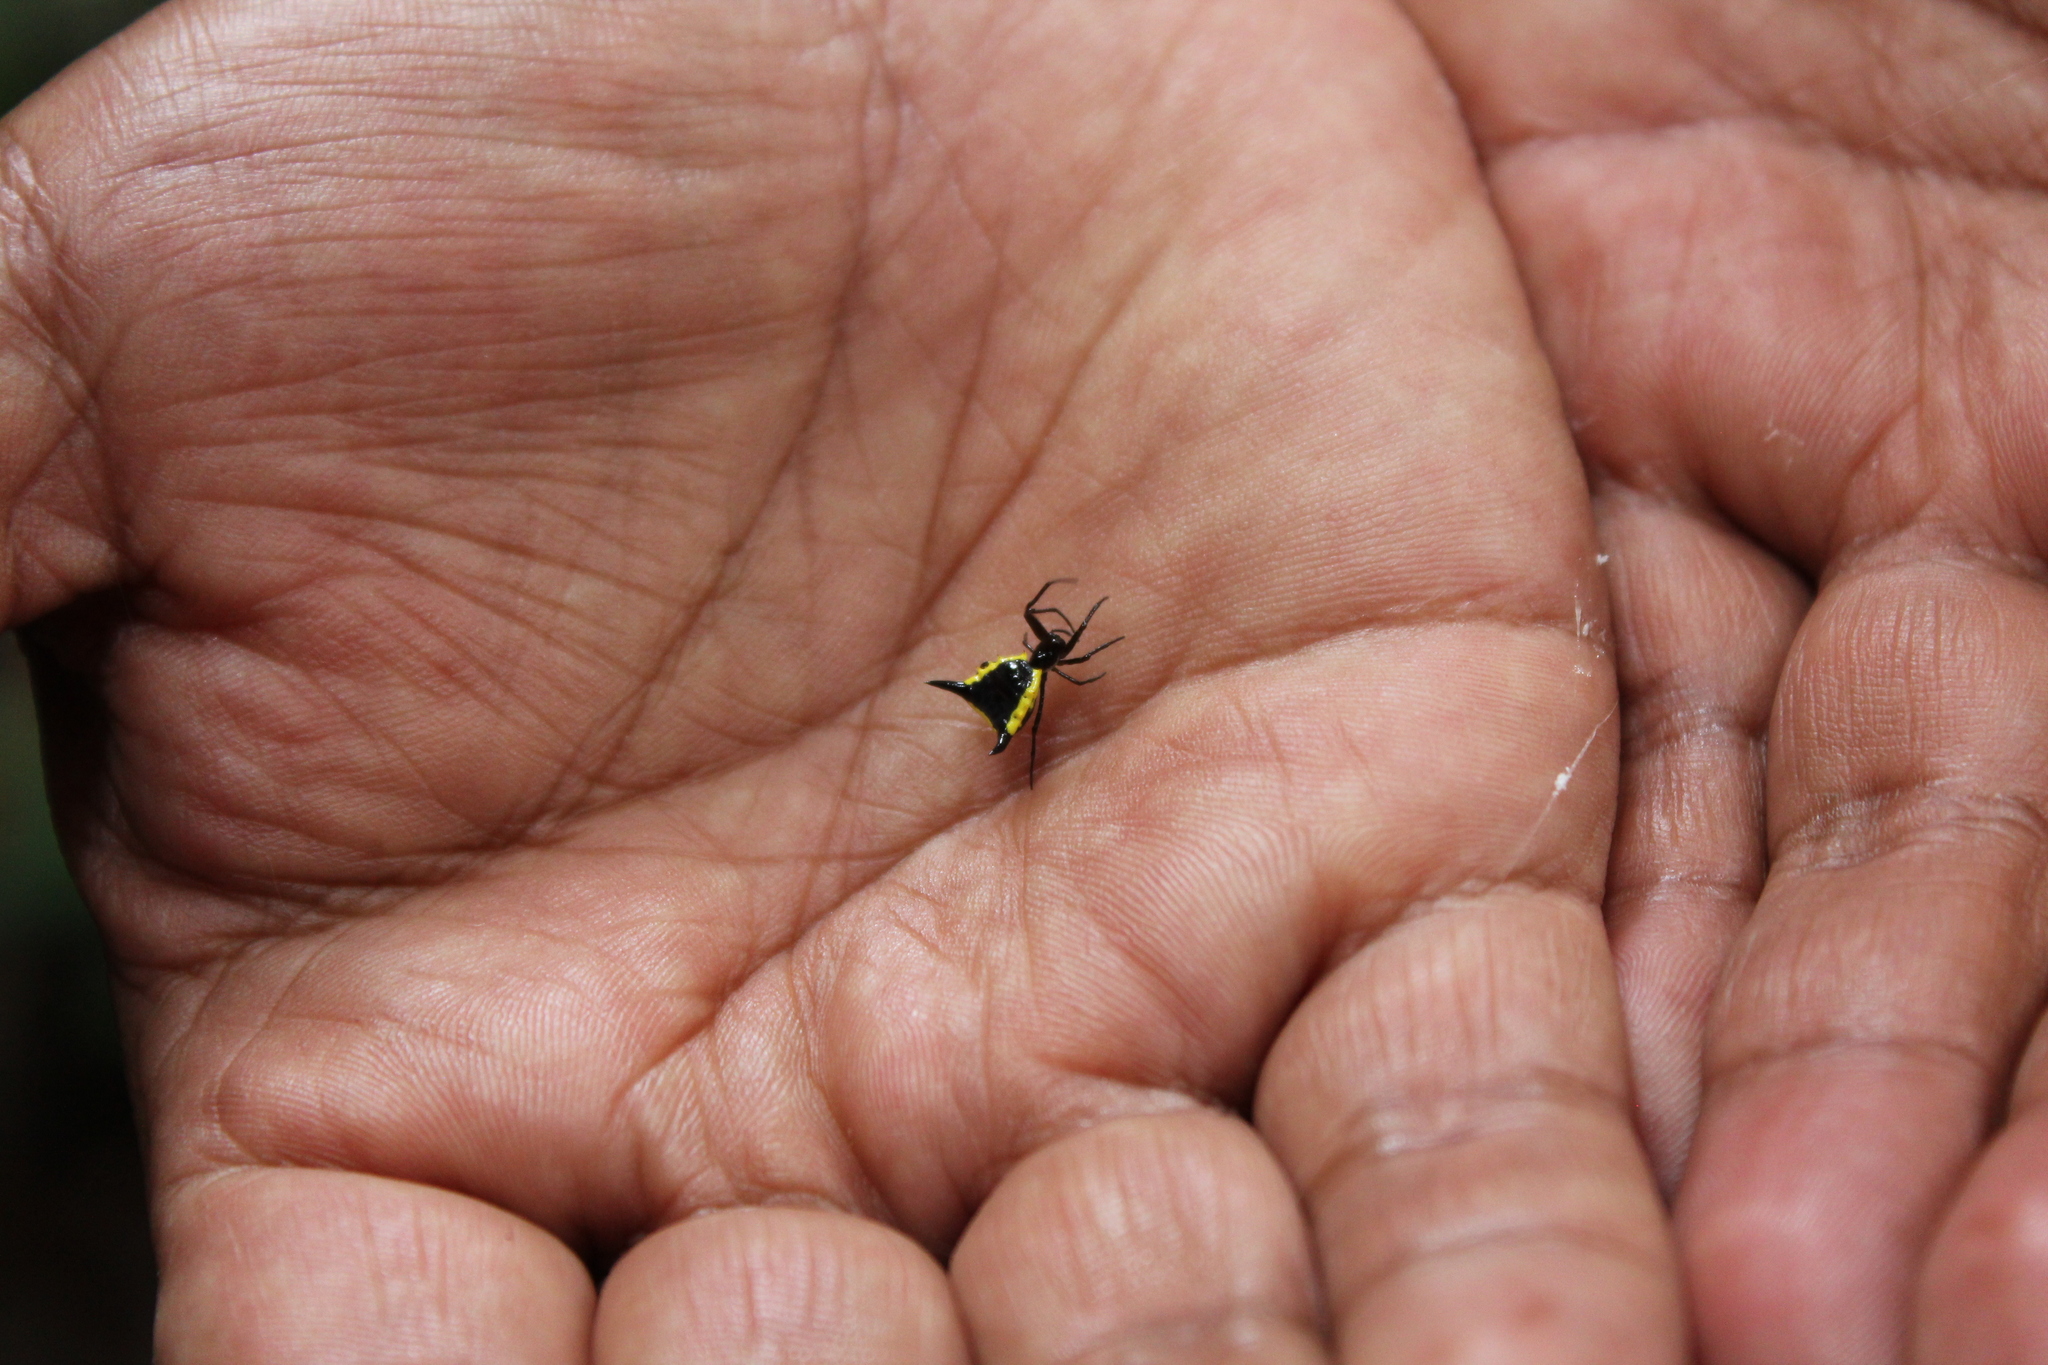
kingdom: Animalia
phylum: Arthropoda
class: Arachnida
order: Araneae
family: Araneidae
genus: Micrathena
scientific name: Micrathena pungens
